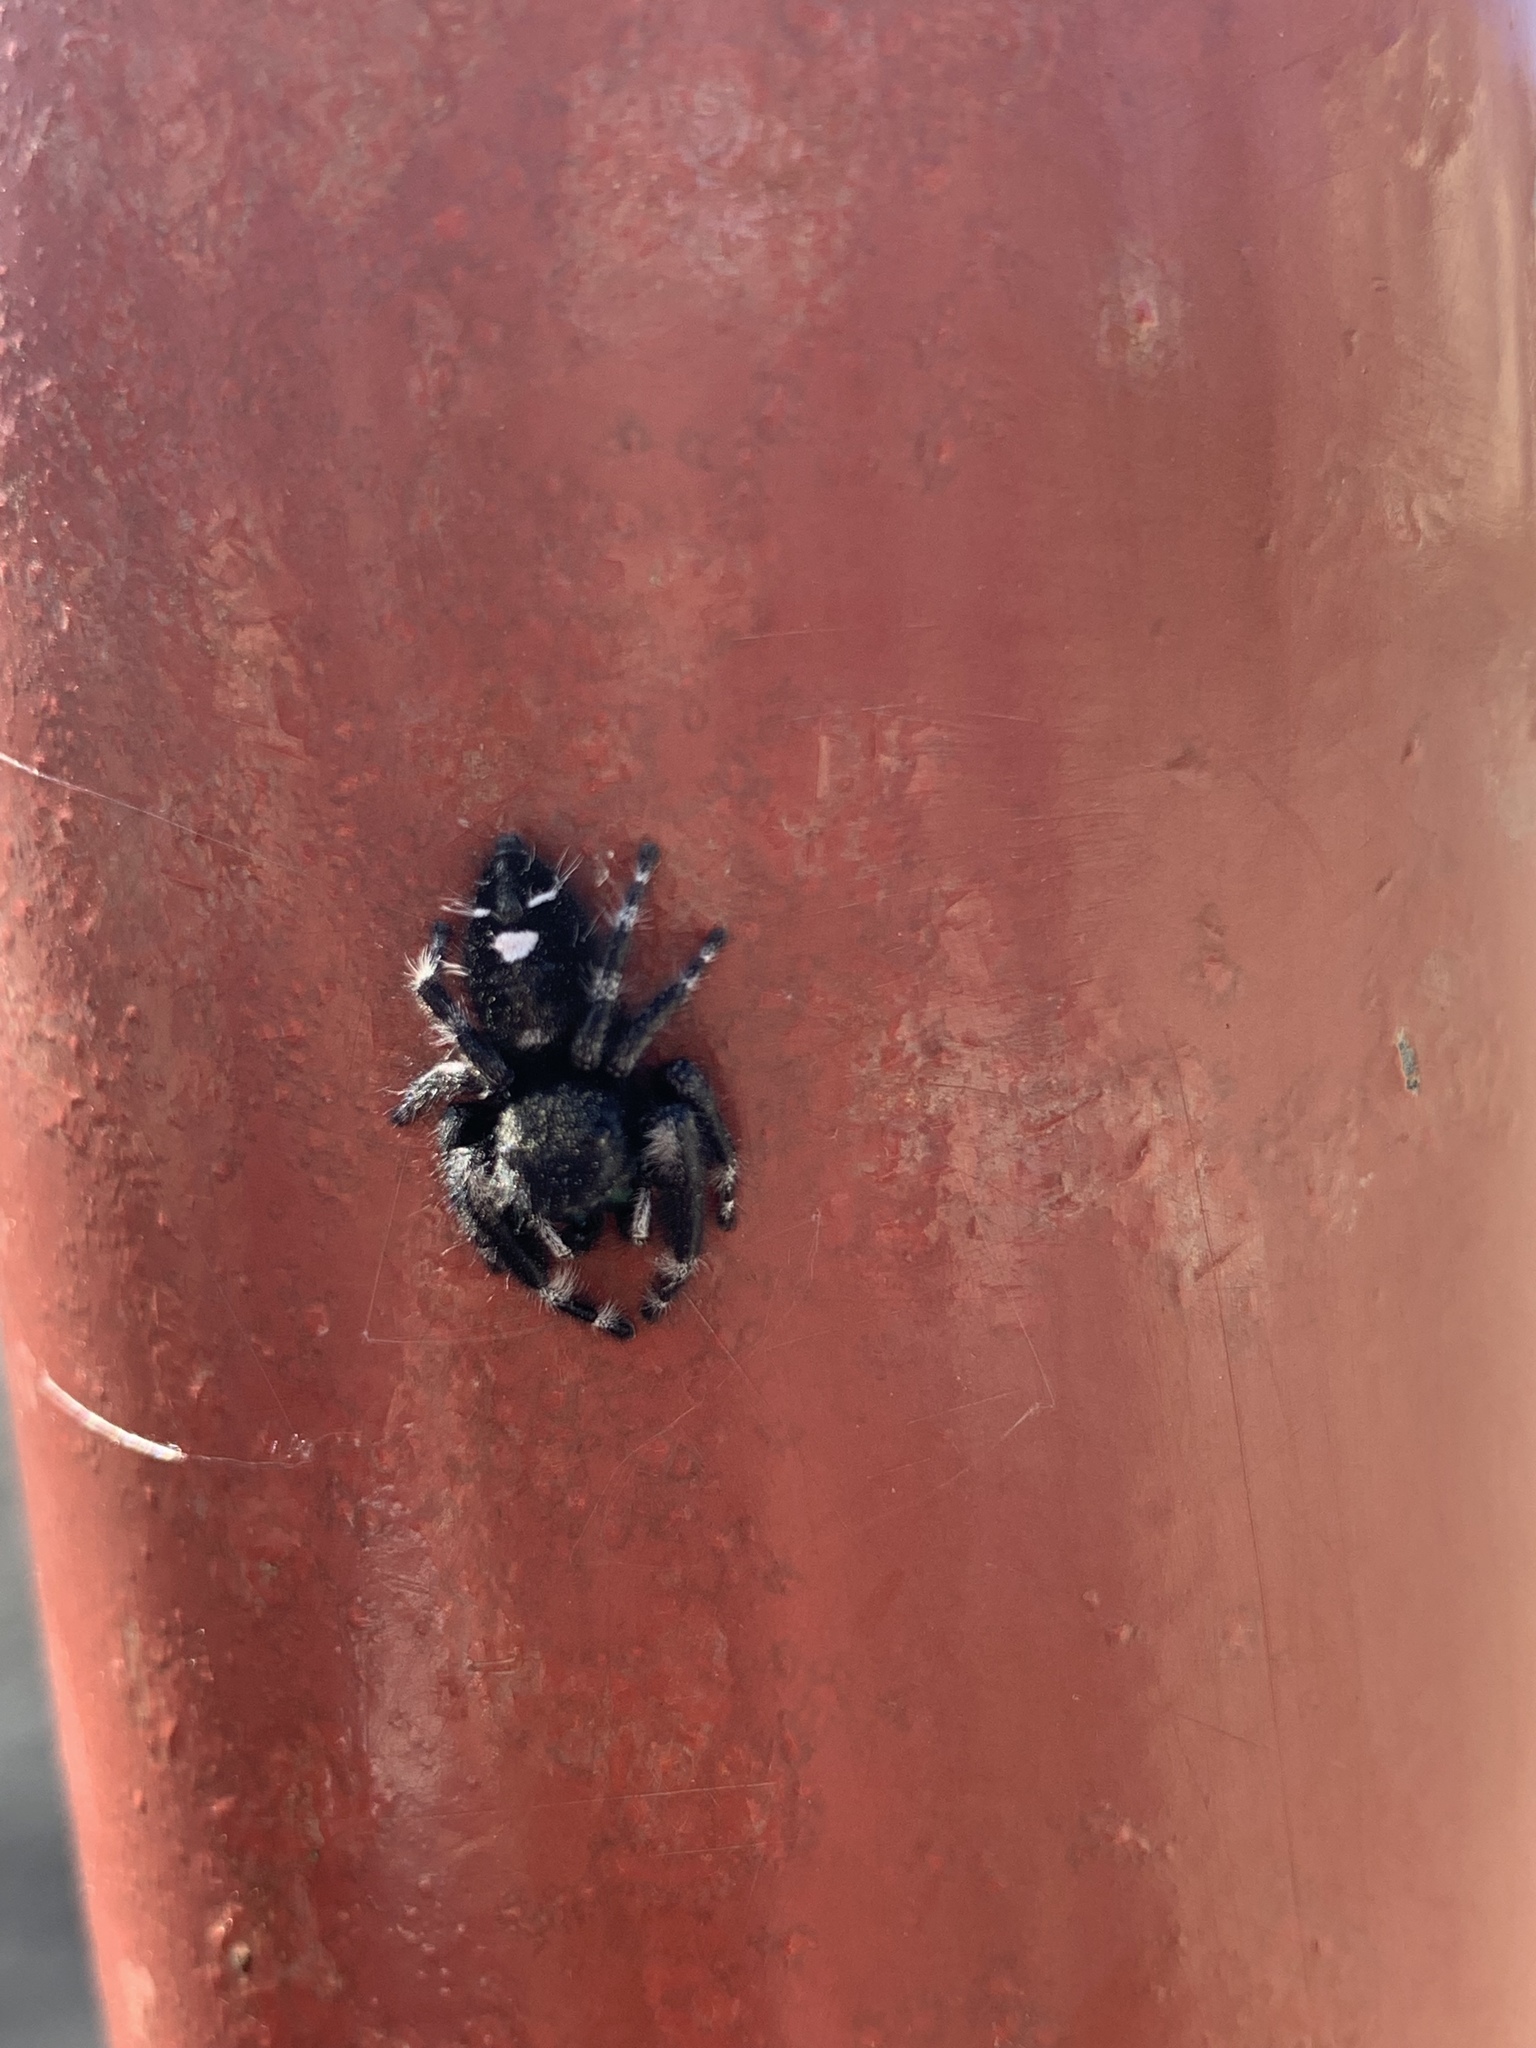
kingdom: Animalia
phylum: Arthropoda
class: Arachnida
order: Araneae
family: Salticidae
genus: Phidippus
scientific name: Phidippus audax
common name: Bold jumper
